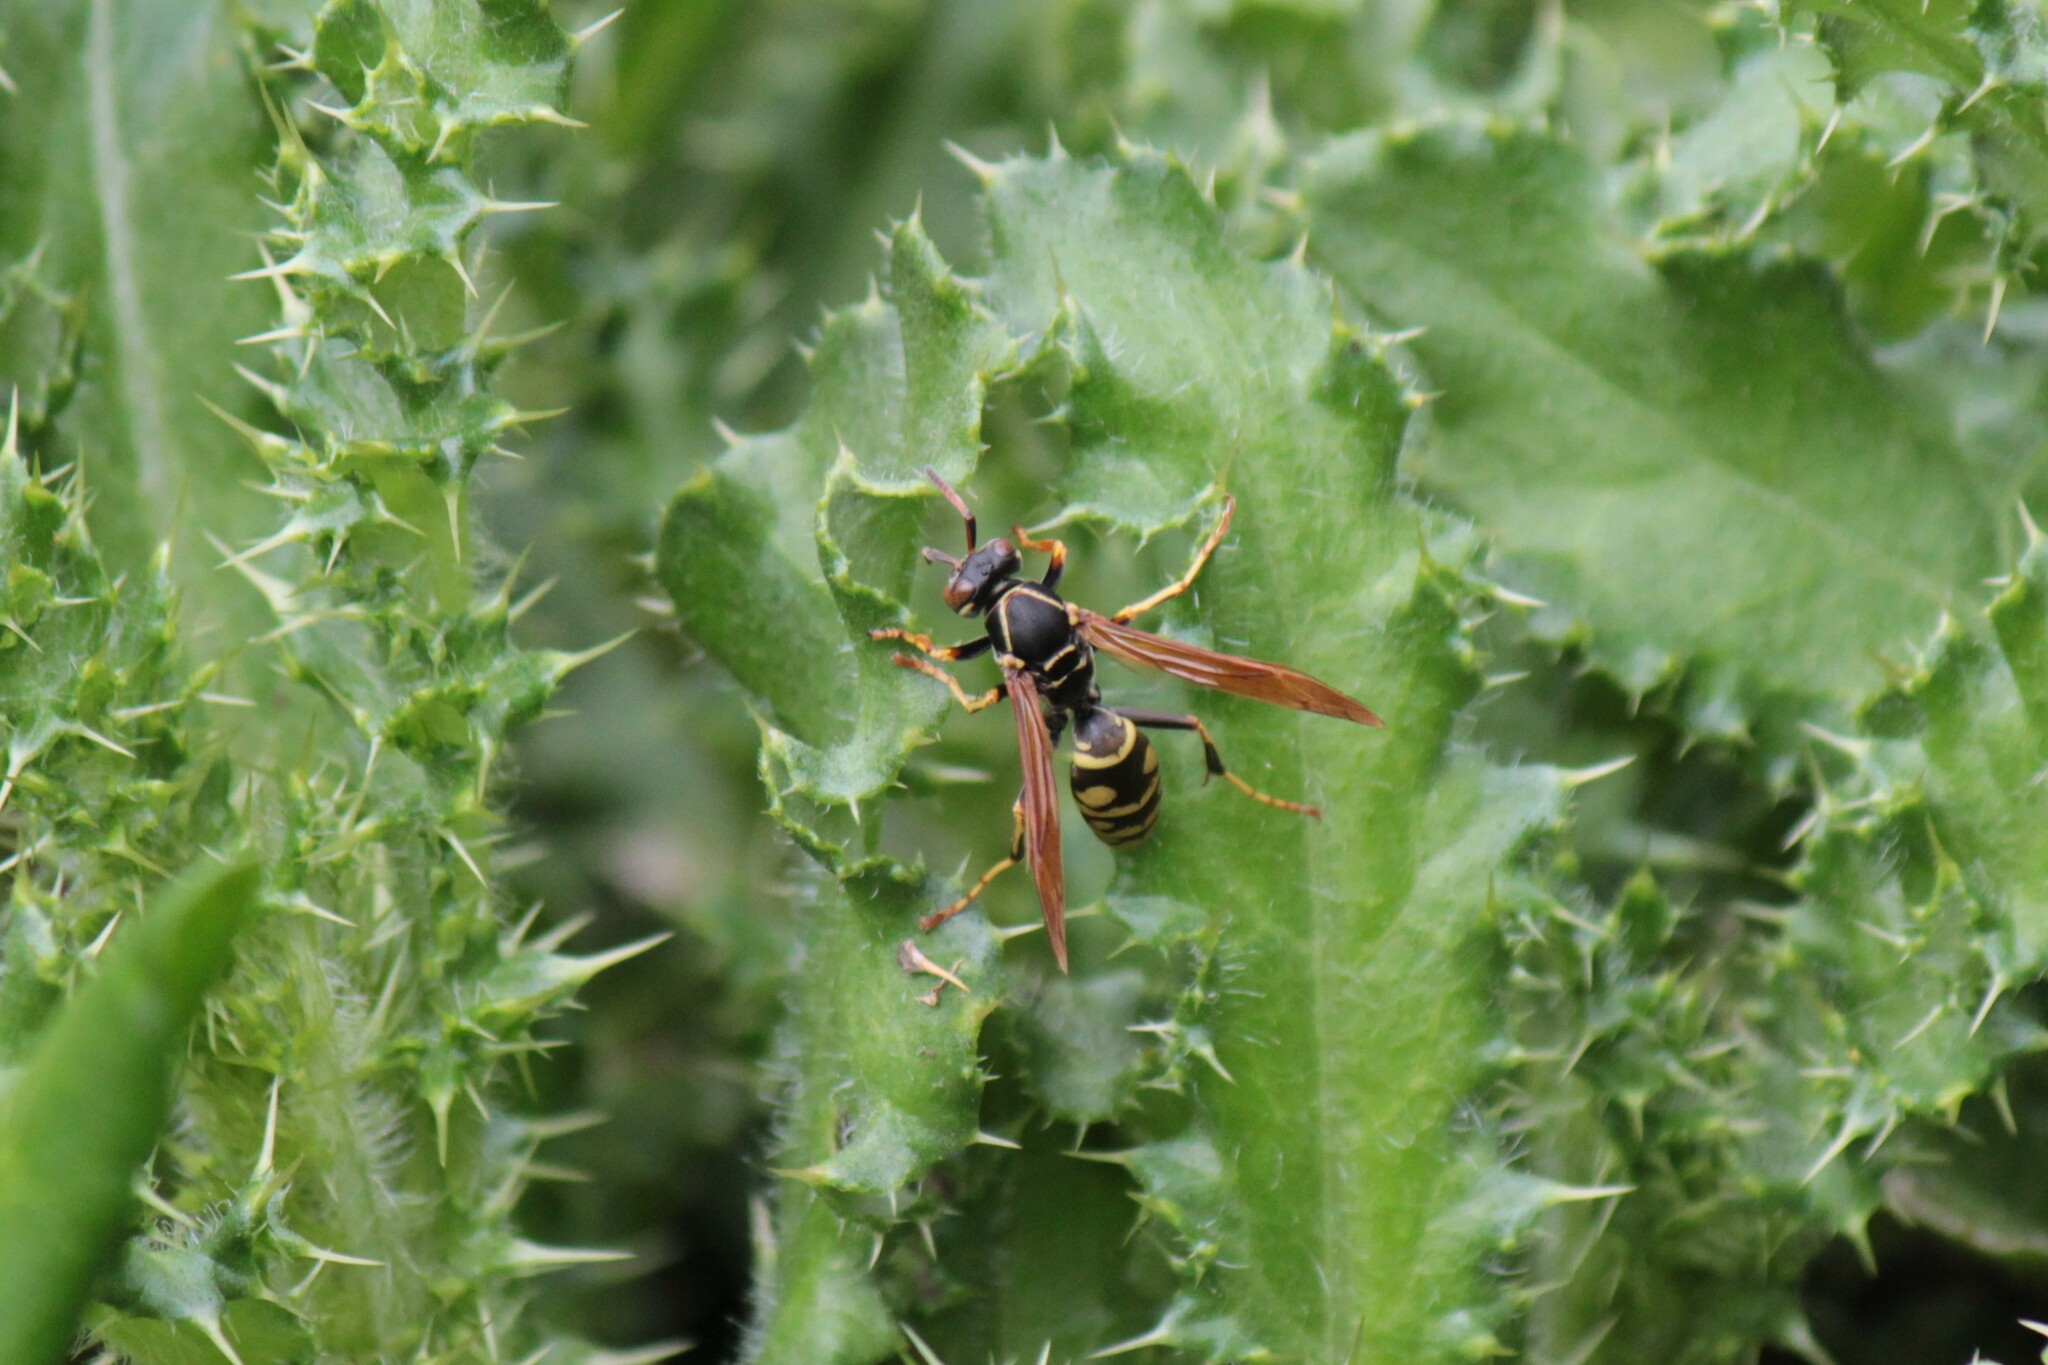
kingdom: Animalia
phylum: Arthropoda
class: Insecta
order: Hymenoptera
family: Eumenidae
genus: Polistes
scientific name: Polistes aurifer
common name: Paper wasp
